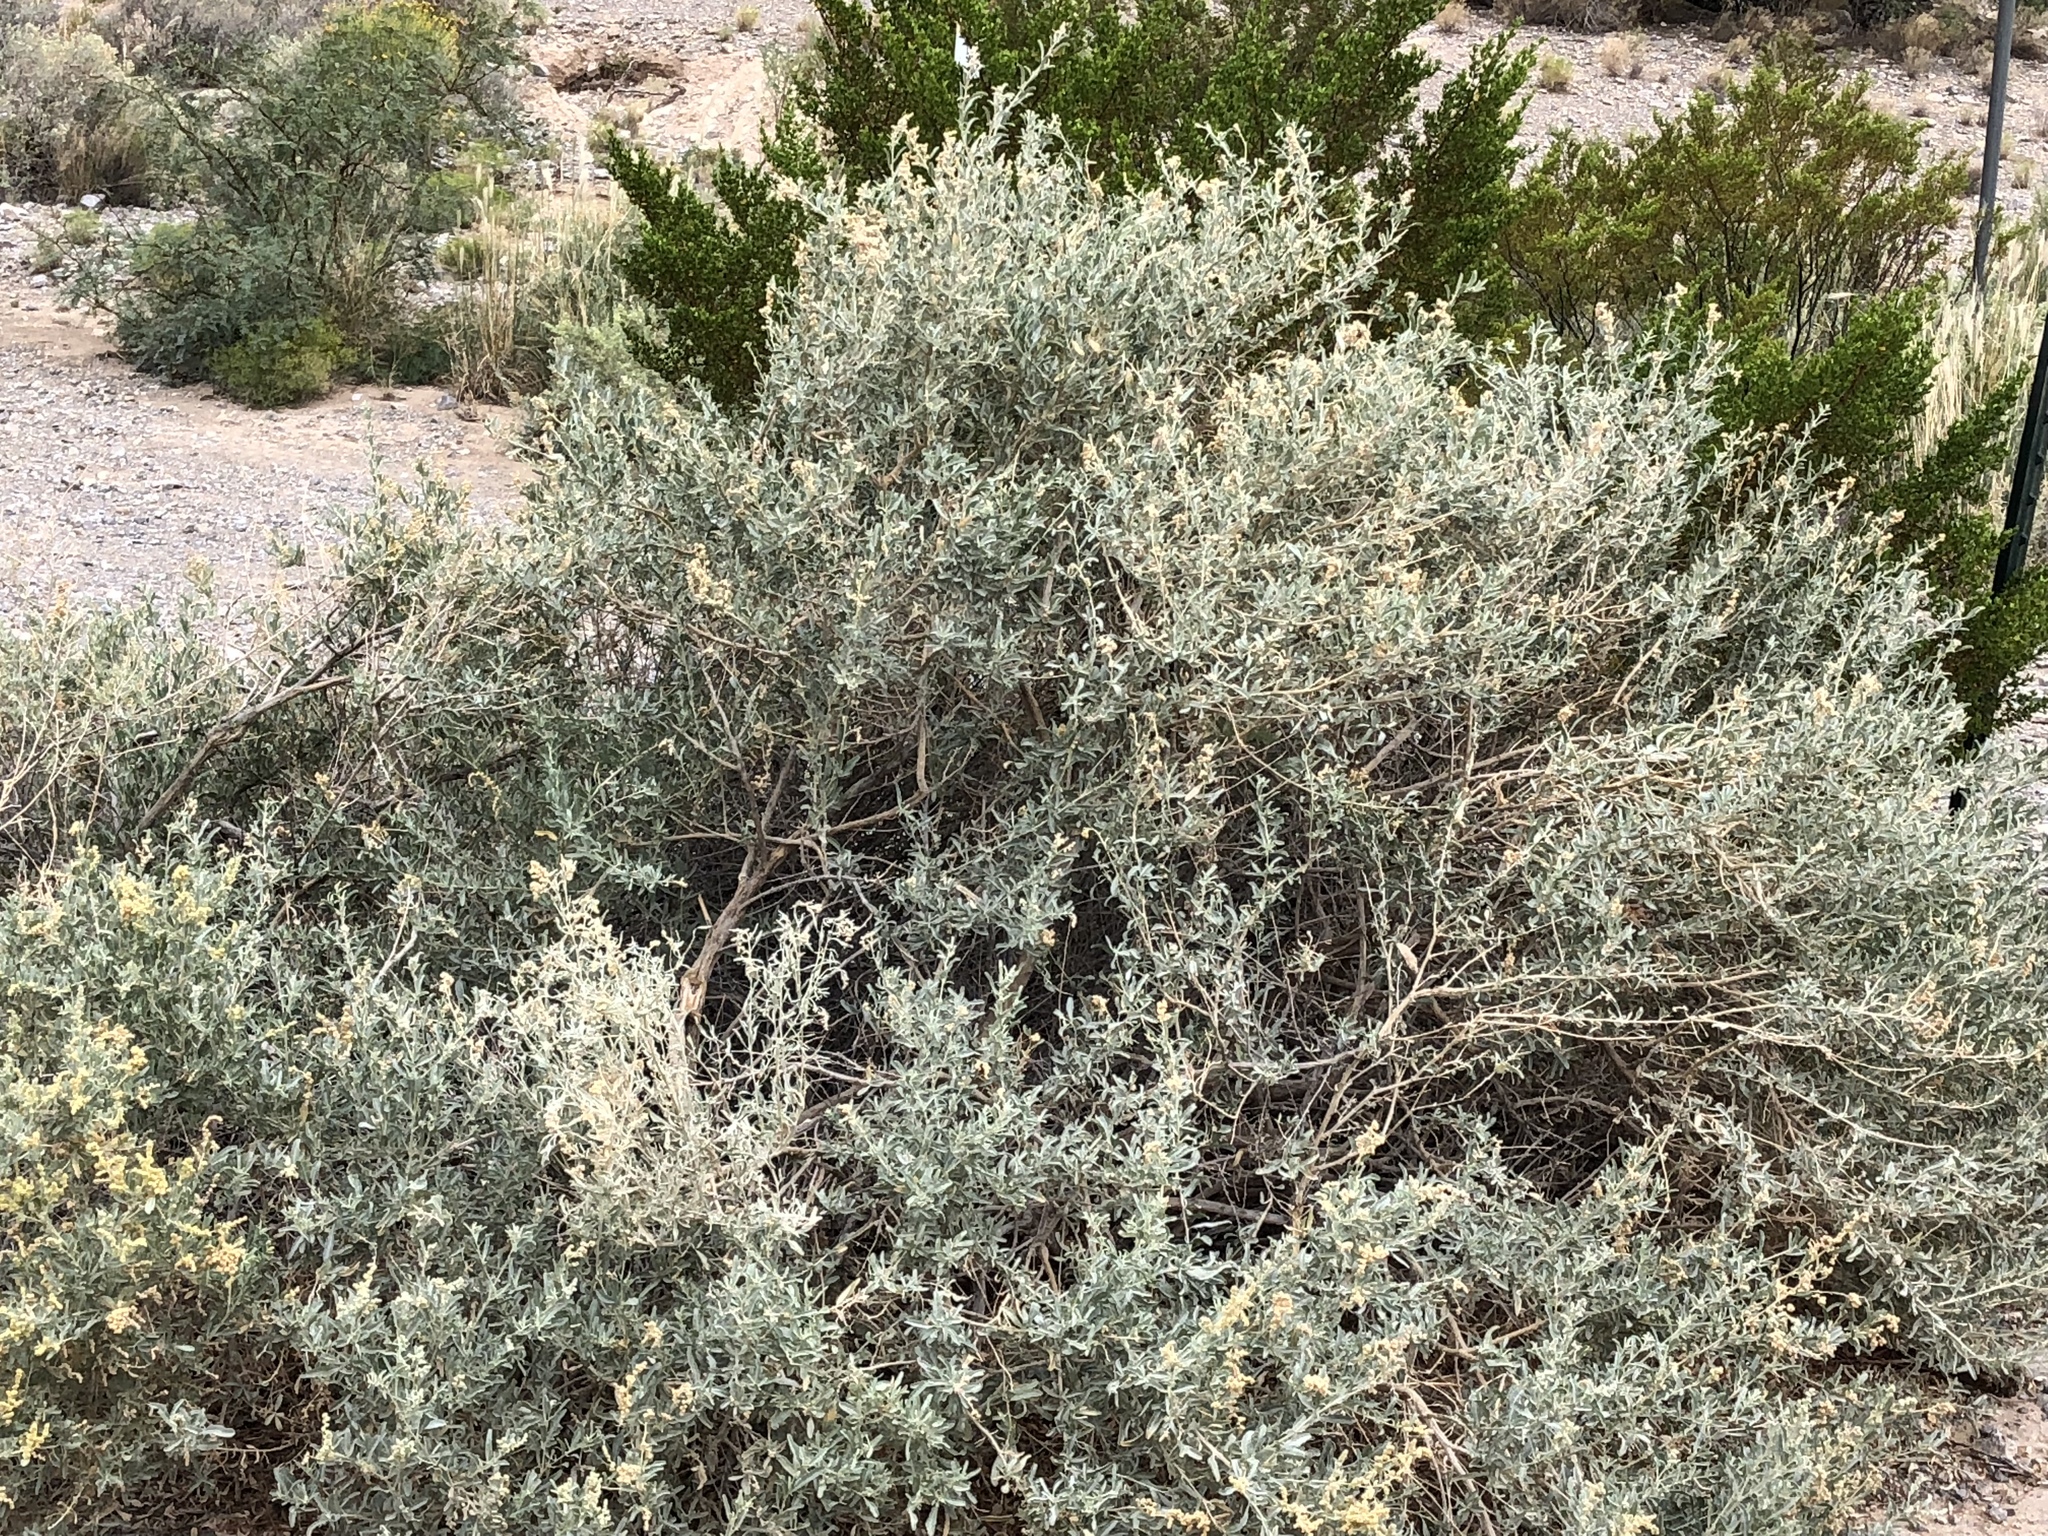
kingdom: Plantae
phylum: Tracheophyta
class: Magnoliopsida
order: Caryophyllales
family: Amaranthaceae
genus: Atriplex
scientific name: Atriplex canescens
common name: Four-wing saltbush
